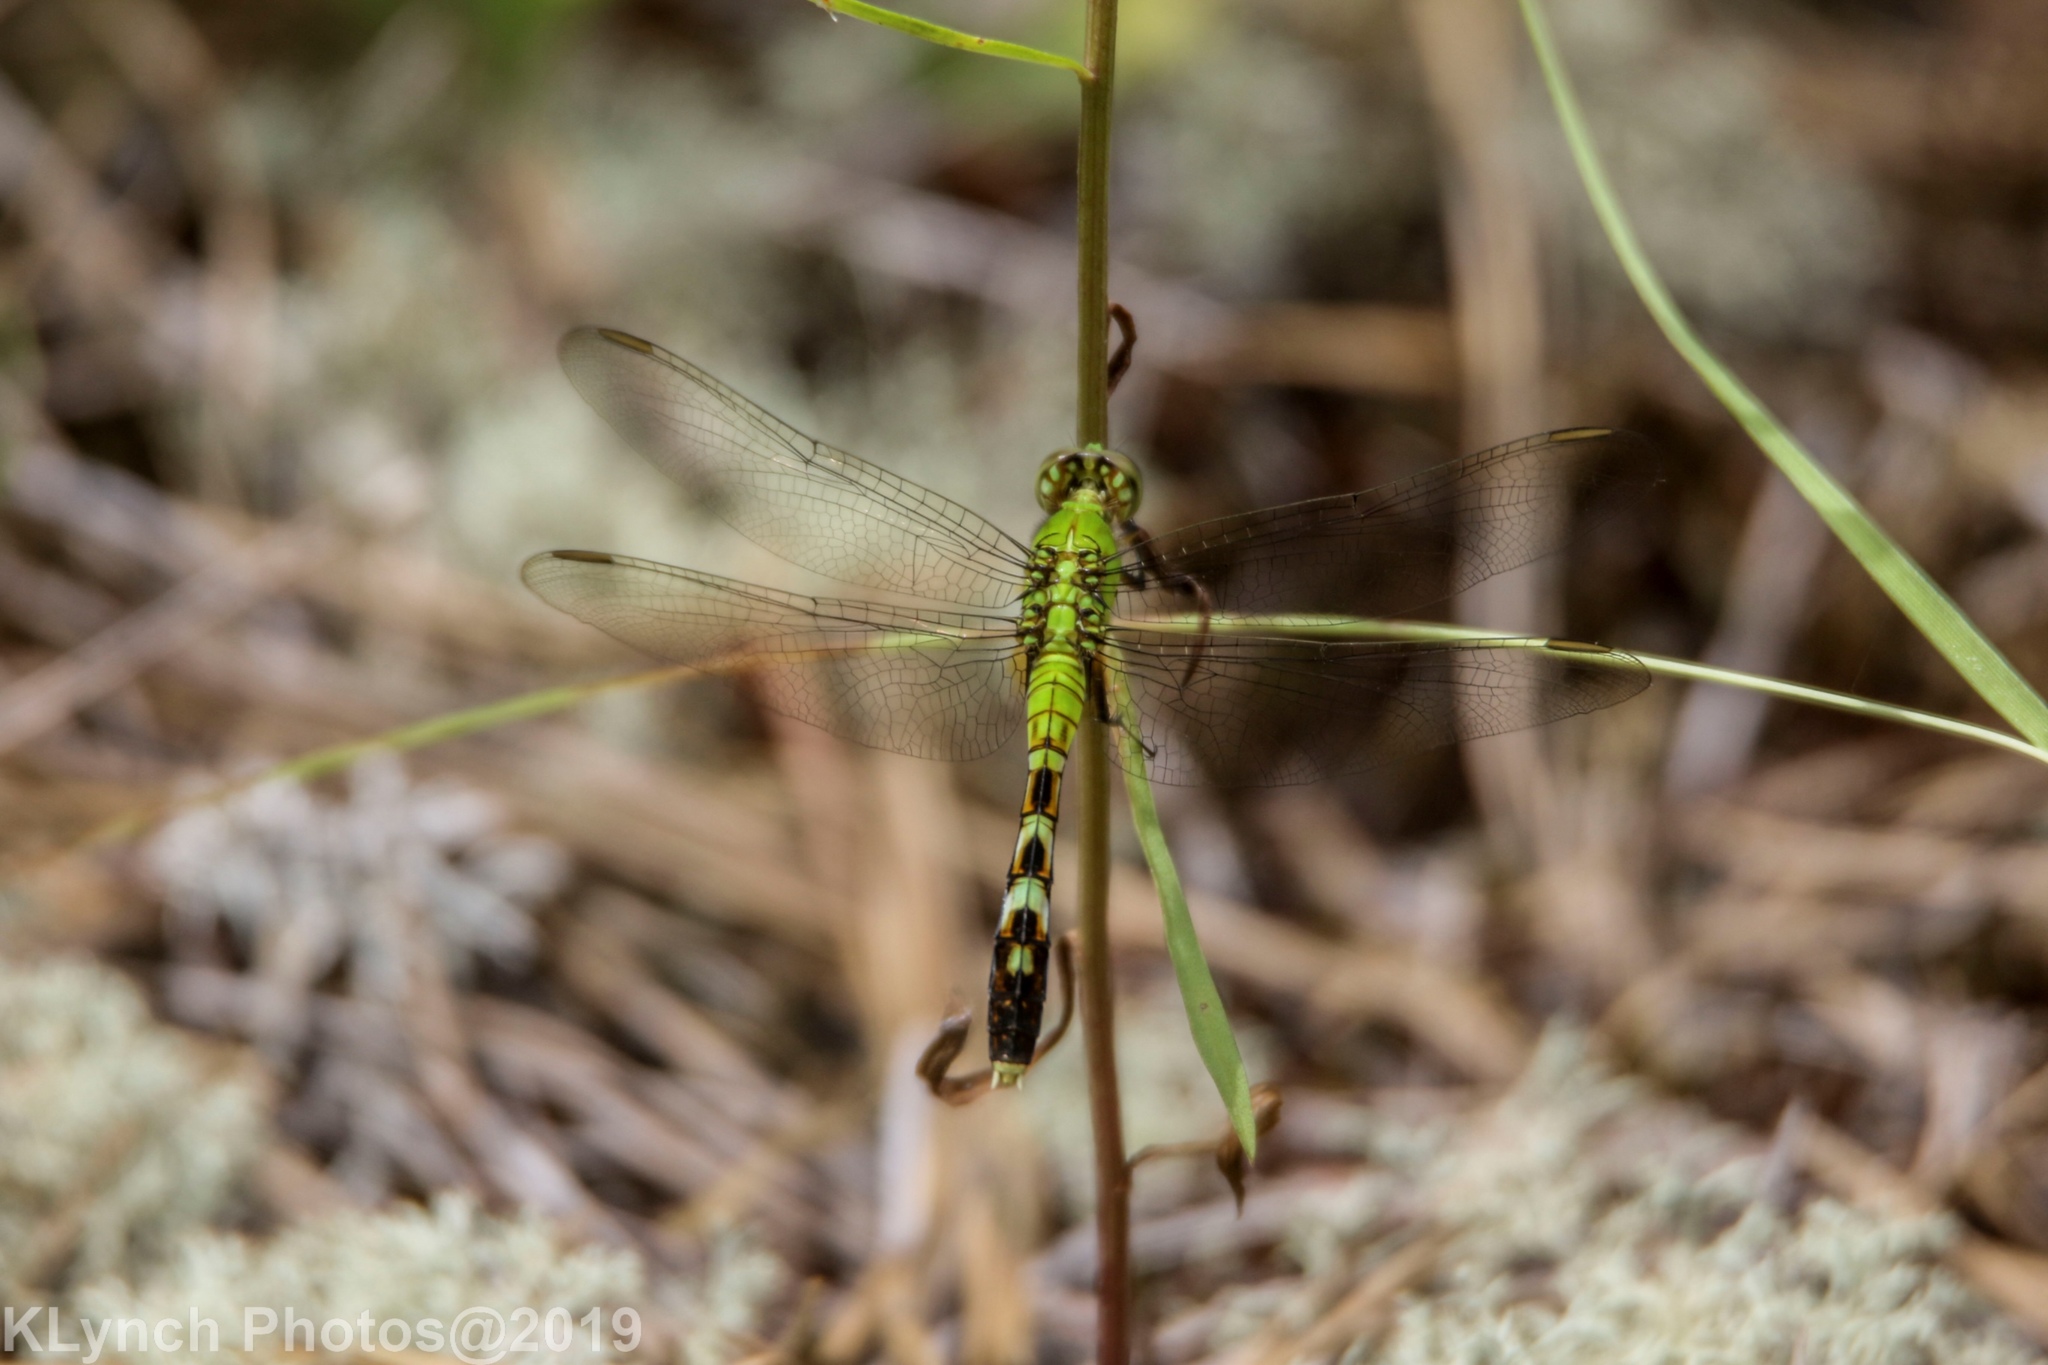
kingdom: Animalia
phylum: Arthropoda
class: Insecta
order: Odonata
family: Libellulidae
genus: Erythemis
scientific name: Erythemis simplicicollis
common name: Eastern pondhawk
